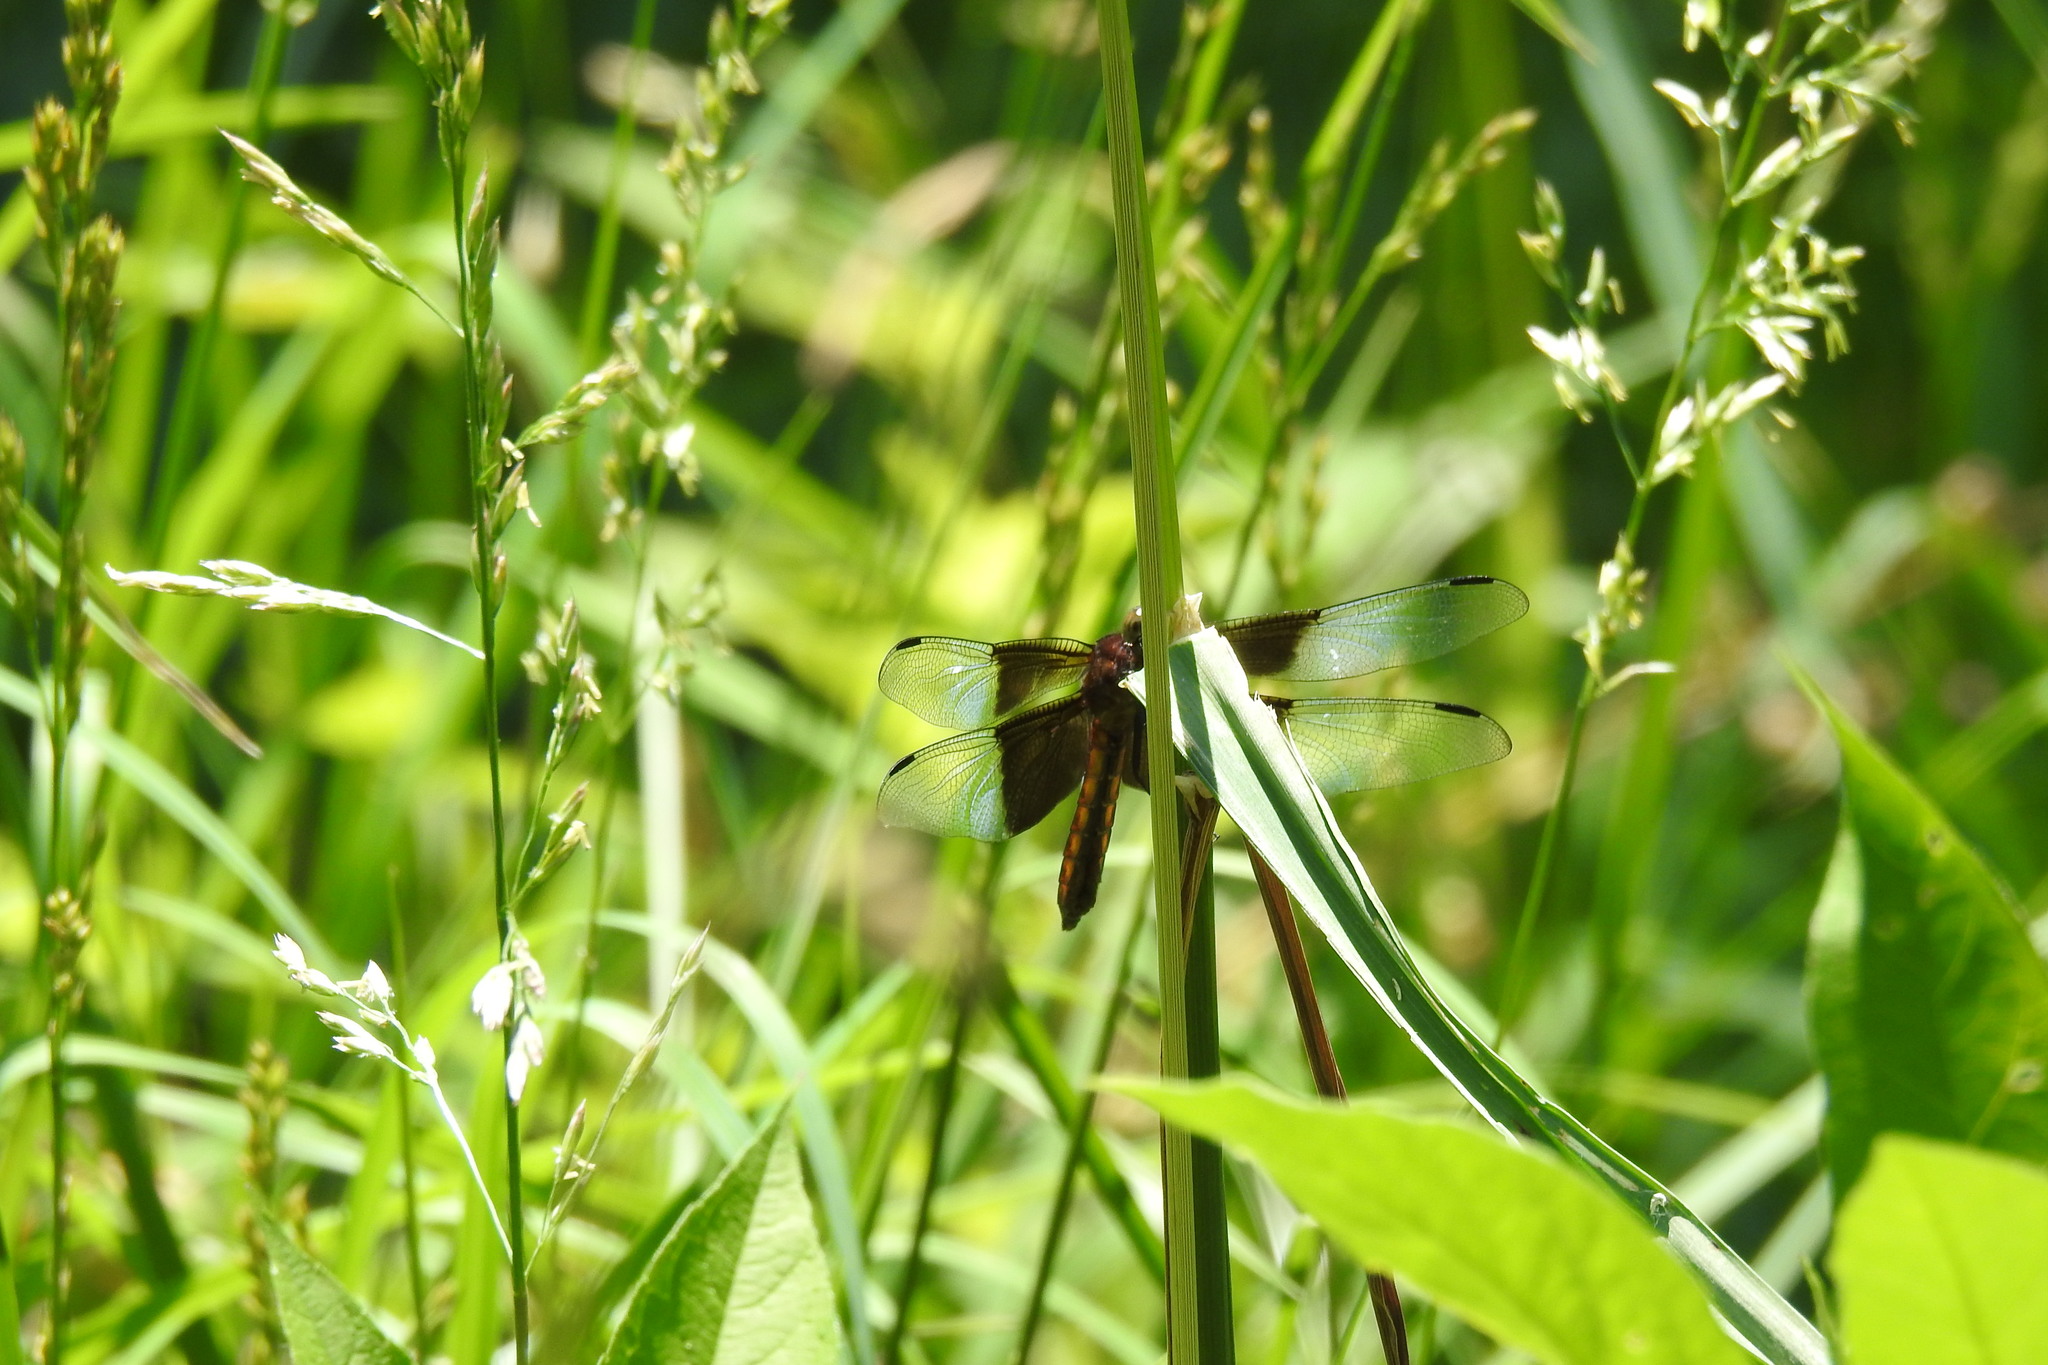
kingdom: Animalia
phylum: Arthropoda
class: Insecta
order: Odonata
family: Libellulidae
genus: Libellula
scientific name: Libellula luctuosa
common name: Widow skimmer
